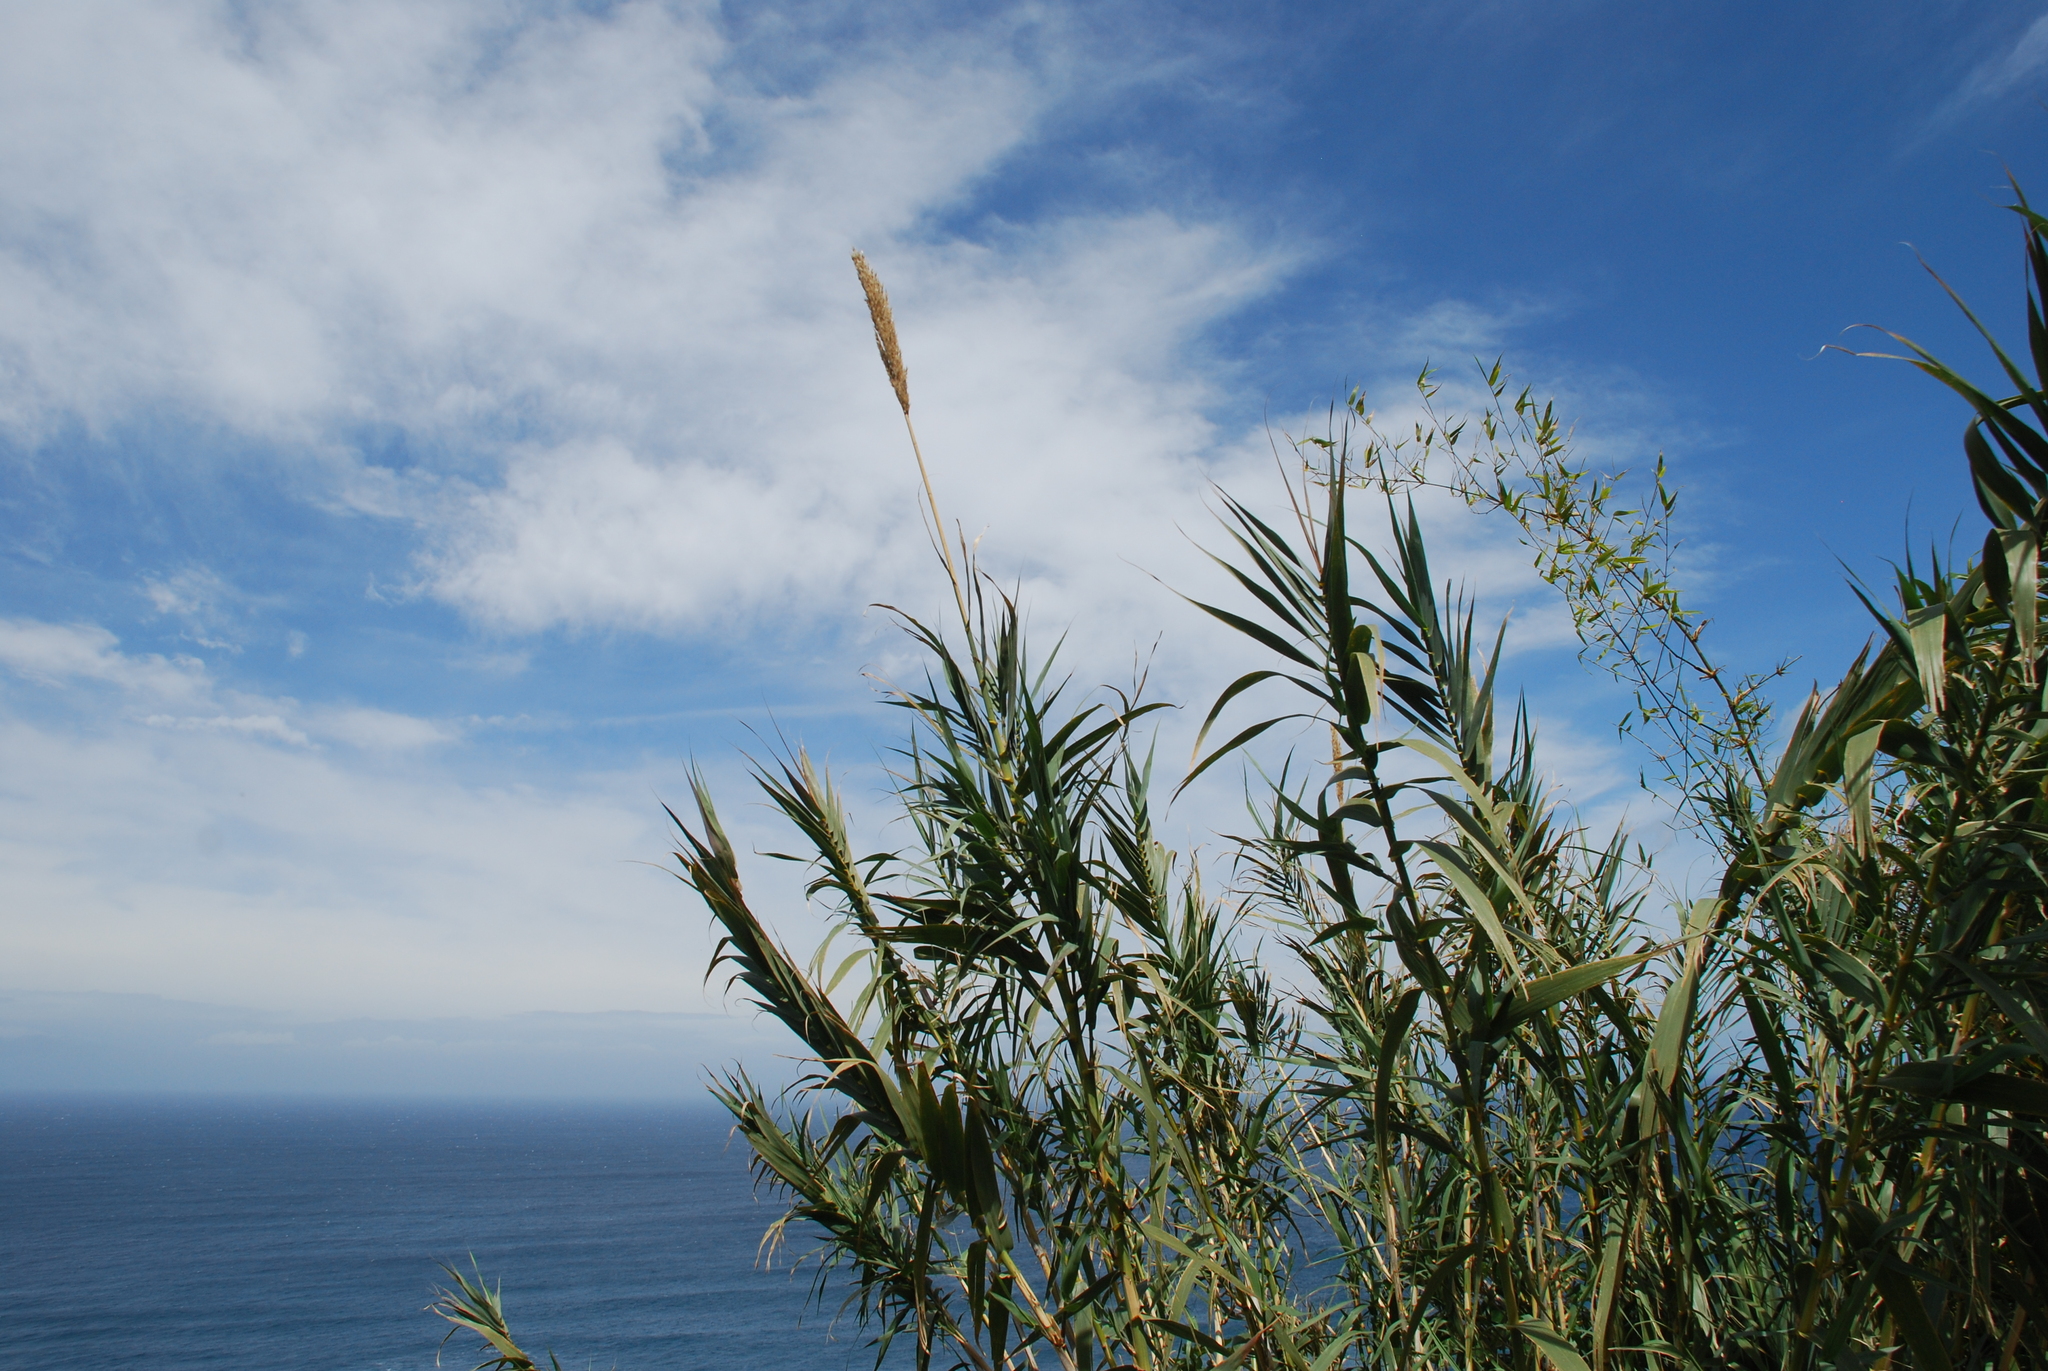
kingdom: Plantae
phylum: Tracheophyta
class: Liliopsida
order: Poales
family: Poaceae
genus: Arundo
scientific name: Arundo donax
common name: Giant reed
